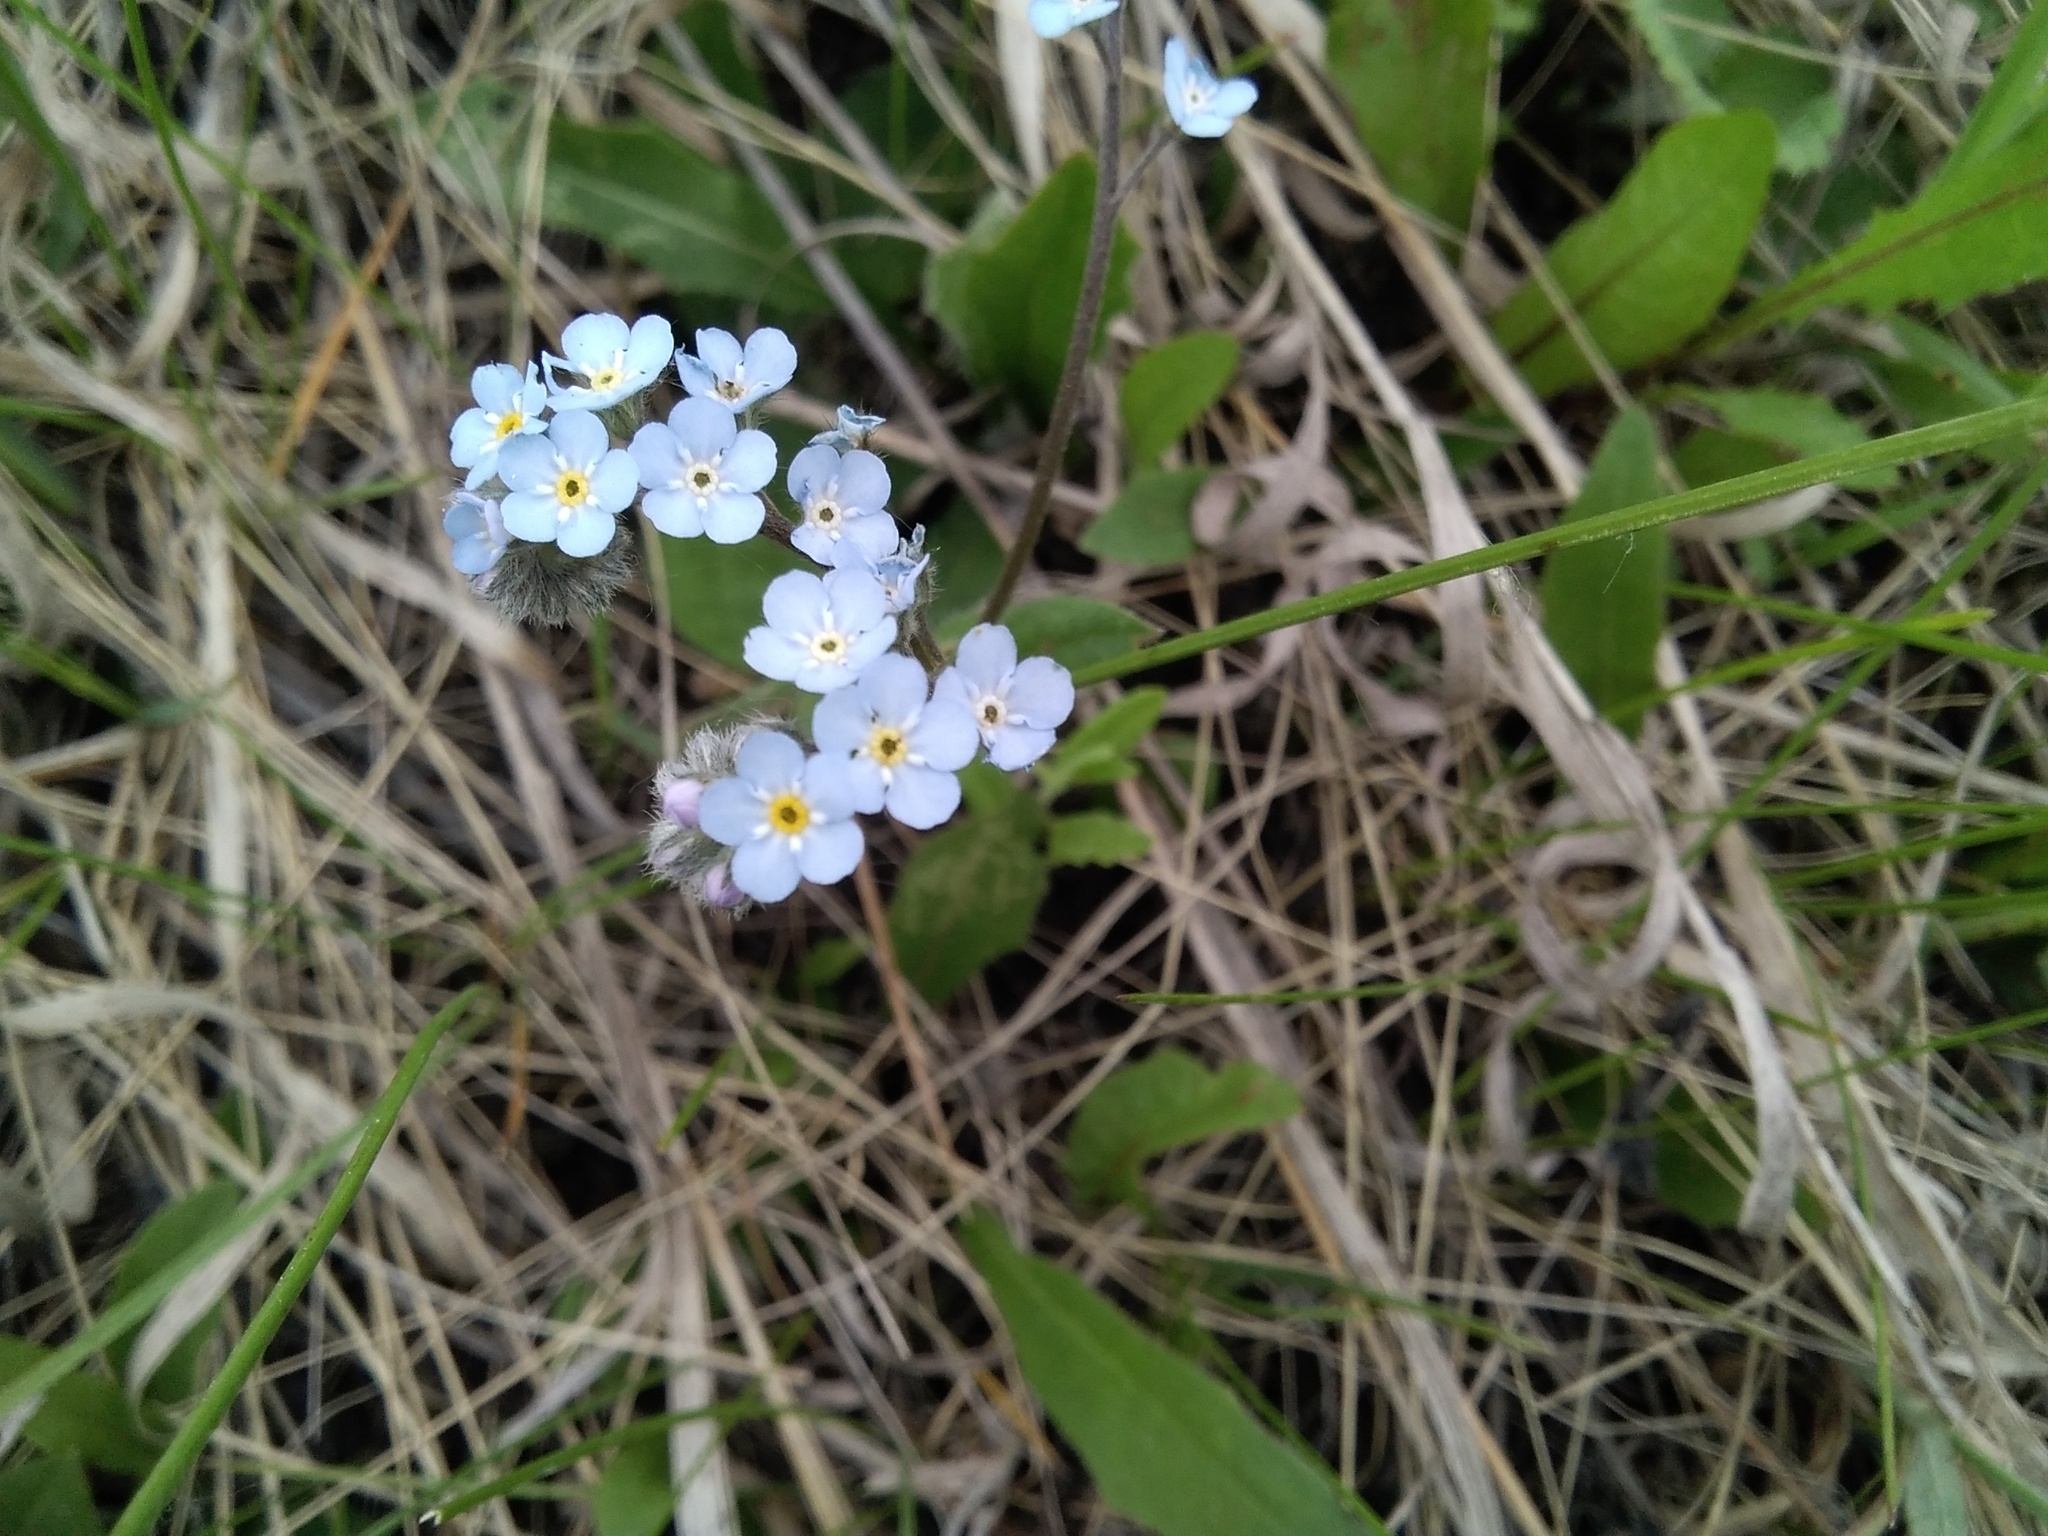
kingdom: Plantae
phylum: Tracheophyta
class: Magnoliopsida
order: Boraginales
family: Boraginaceae
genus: Myosotis
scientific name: Myosotis imitata
